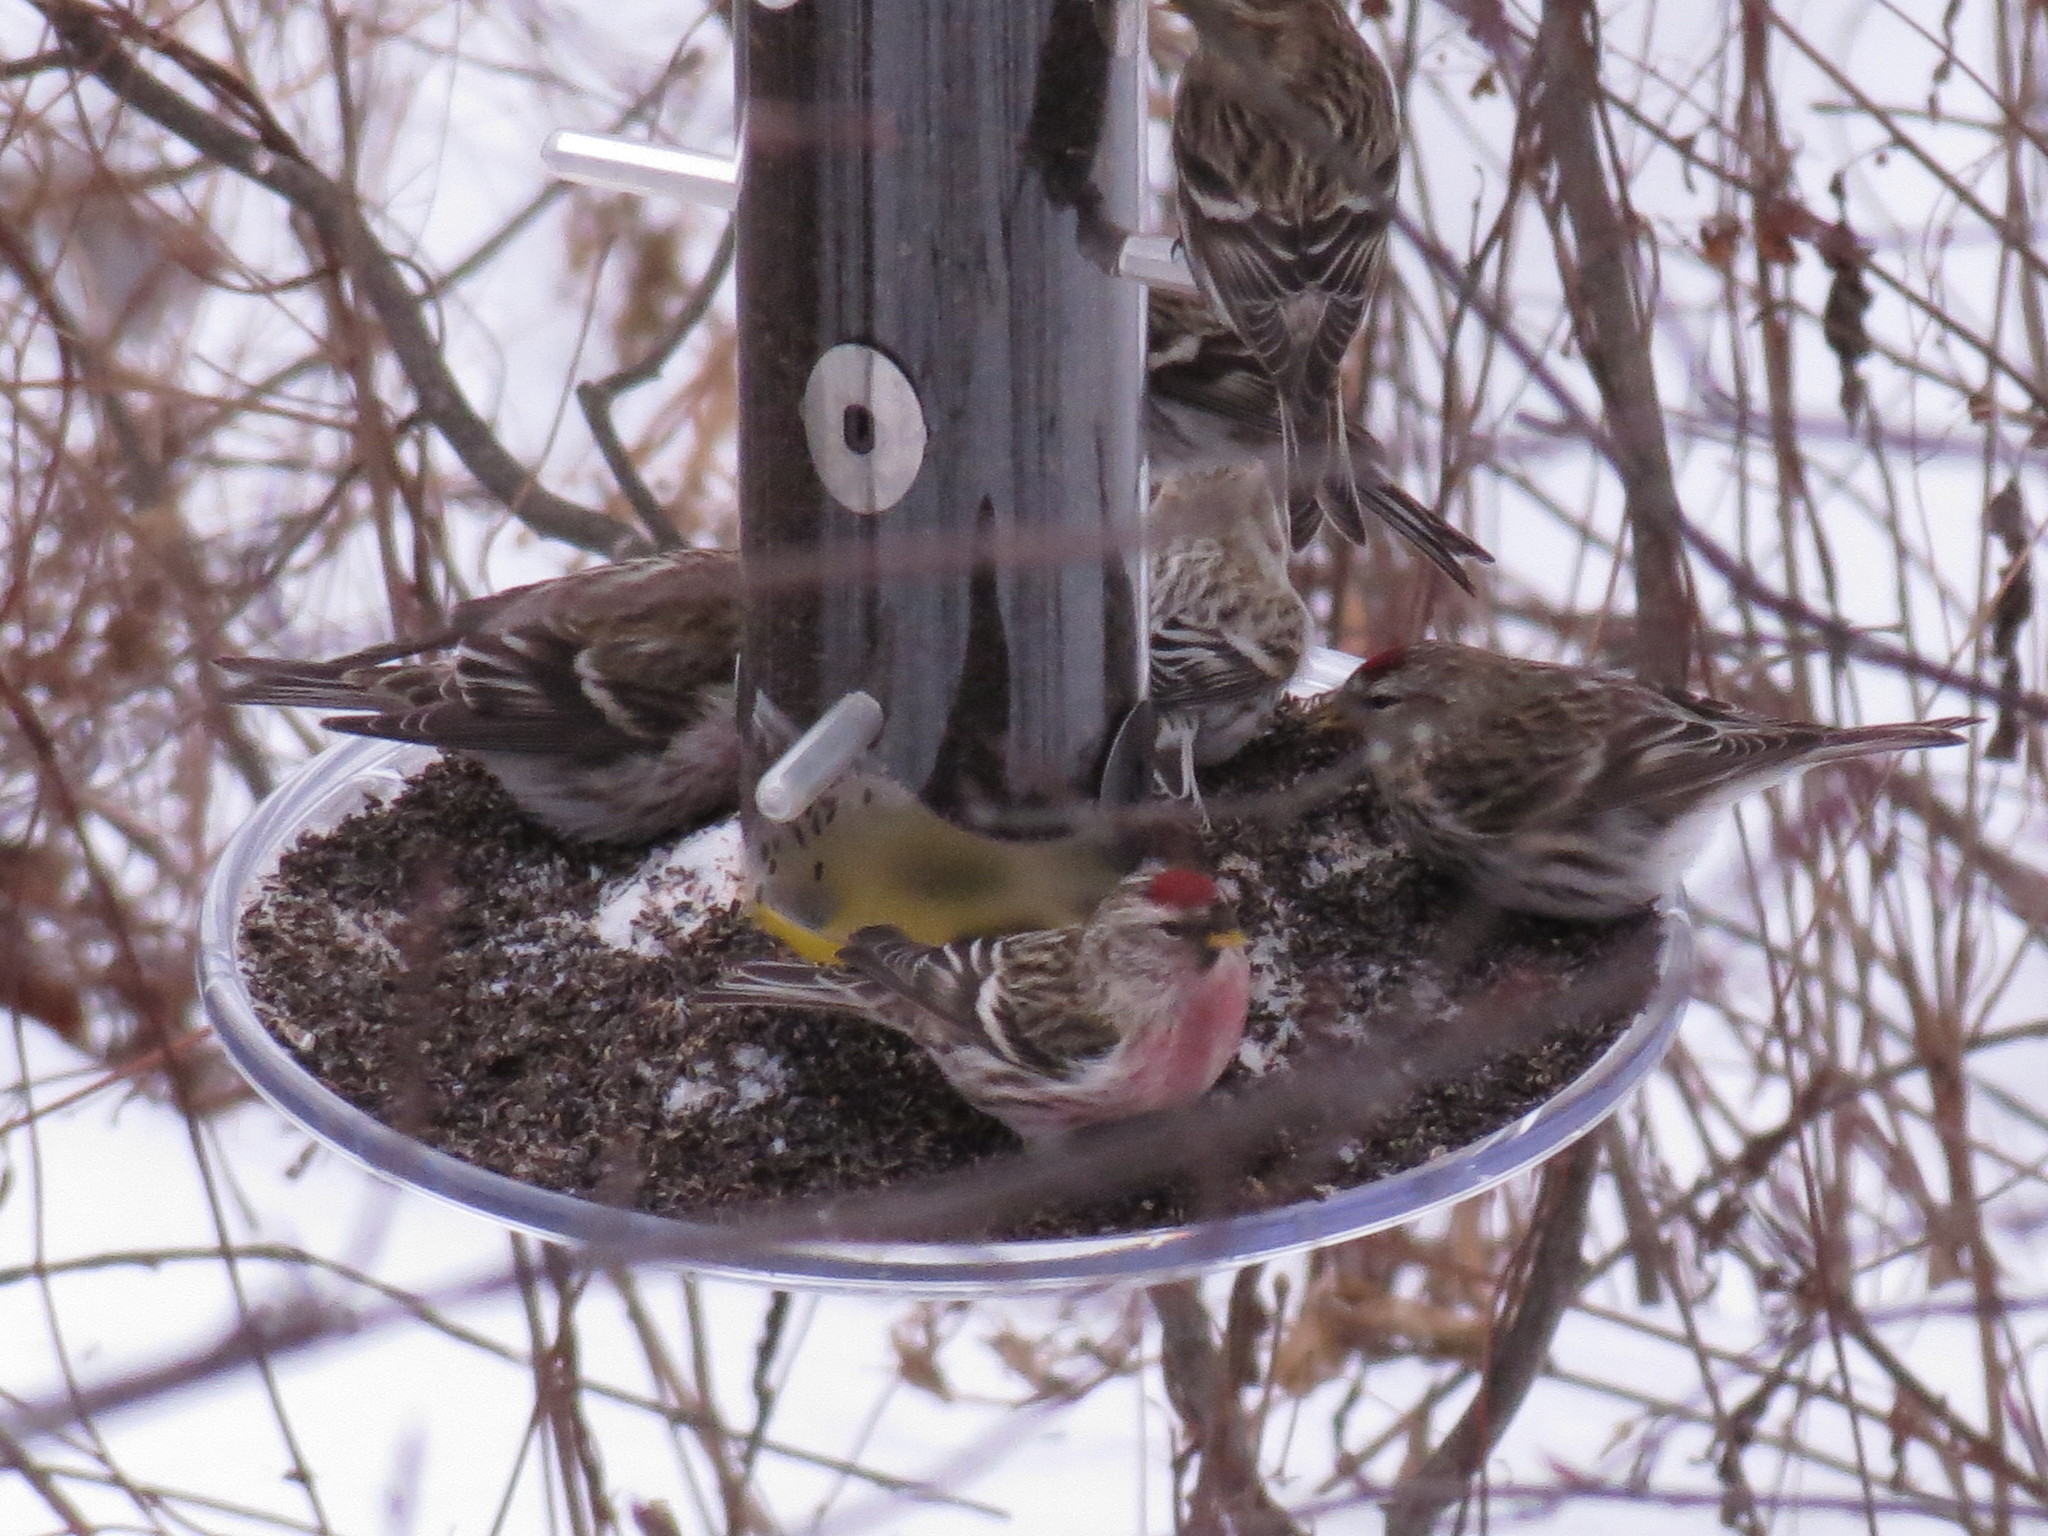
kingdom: Animalia
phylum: Chordata
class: Aves
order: Passeriformes
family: Fringillidae
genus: Acanthis
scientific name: Acanthis flammea
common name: Common redpoll
